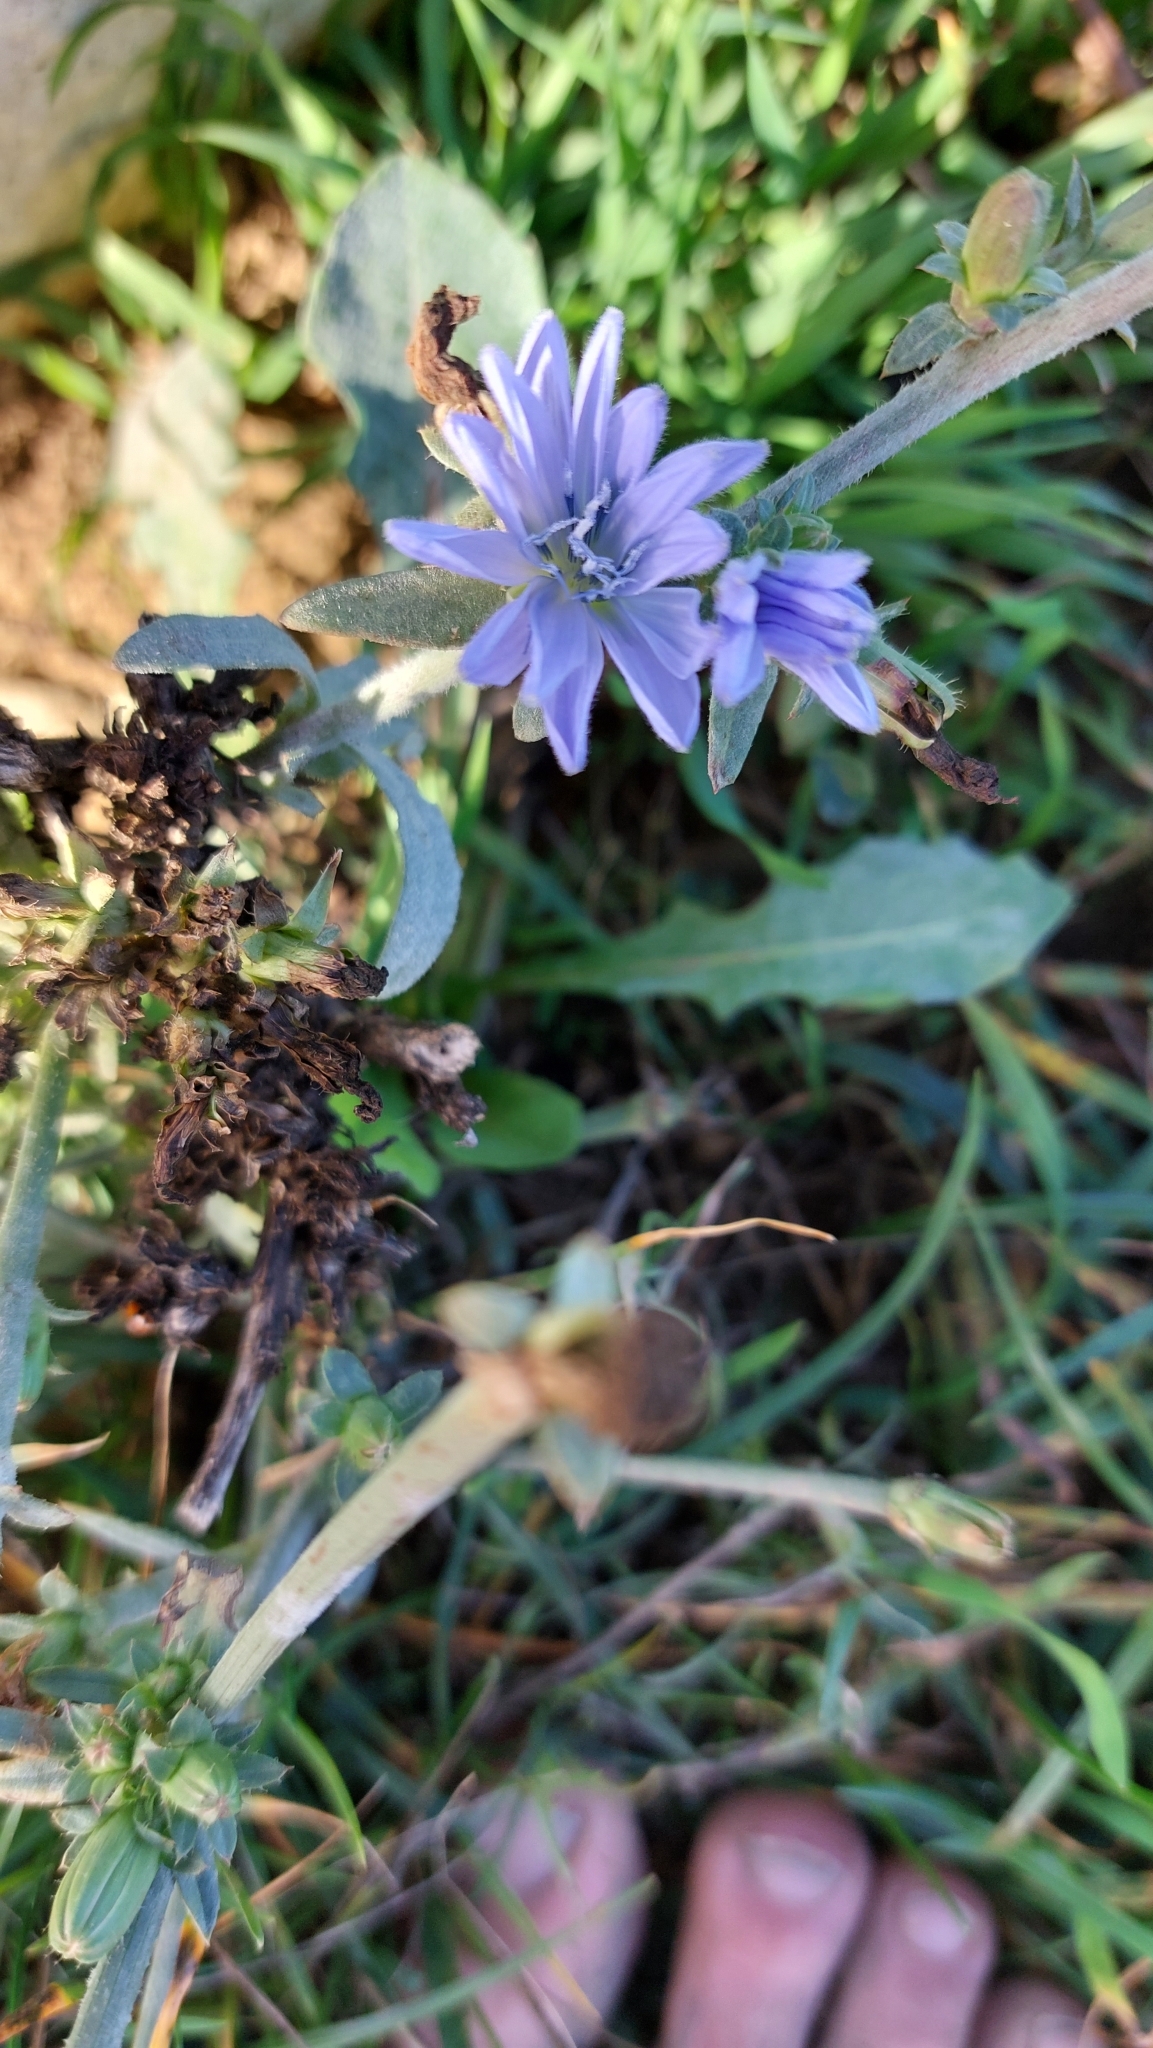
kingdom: Plantae
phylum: Tracheophyta
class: Magnoliopsida
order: Asterales
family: Asteraceae
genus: Cichorium
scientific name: Cichorium intybus
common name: Chicory
